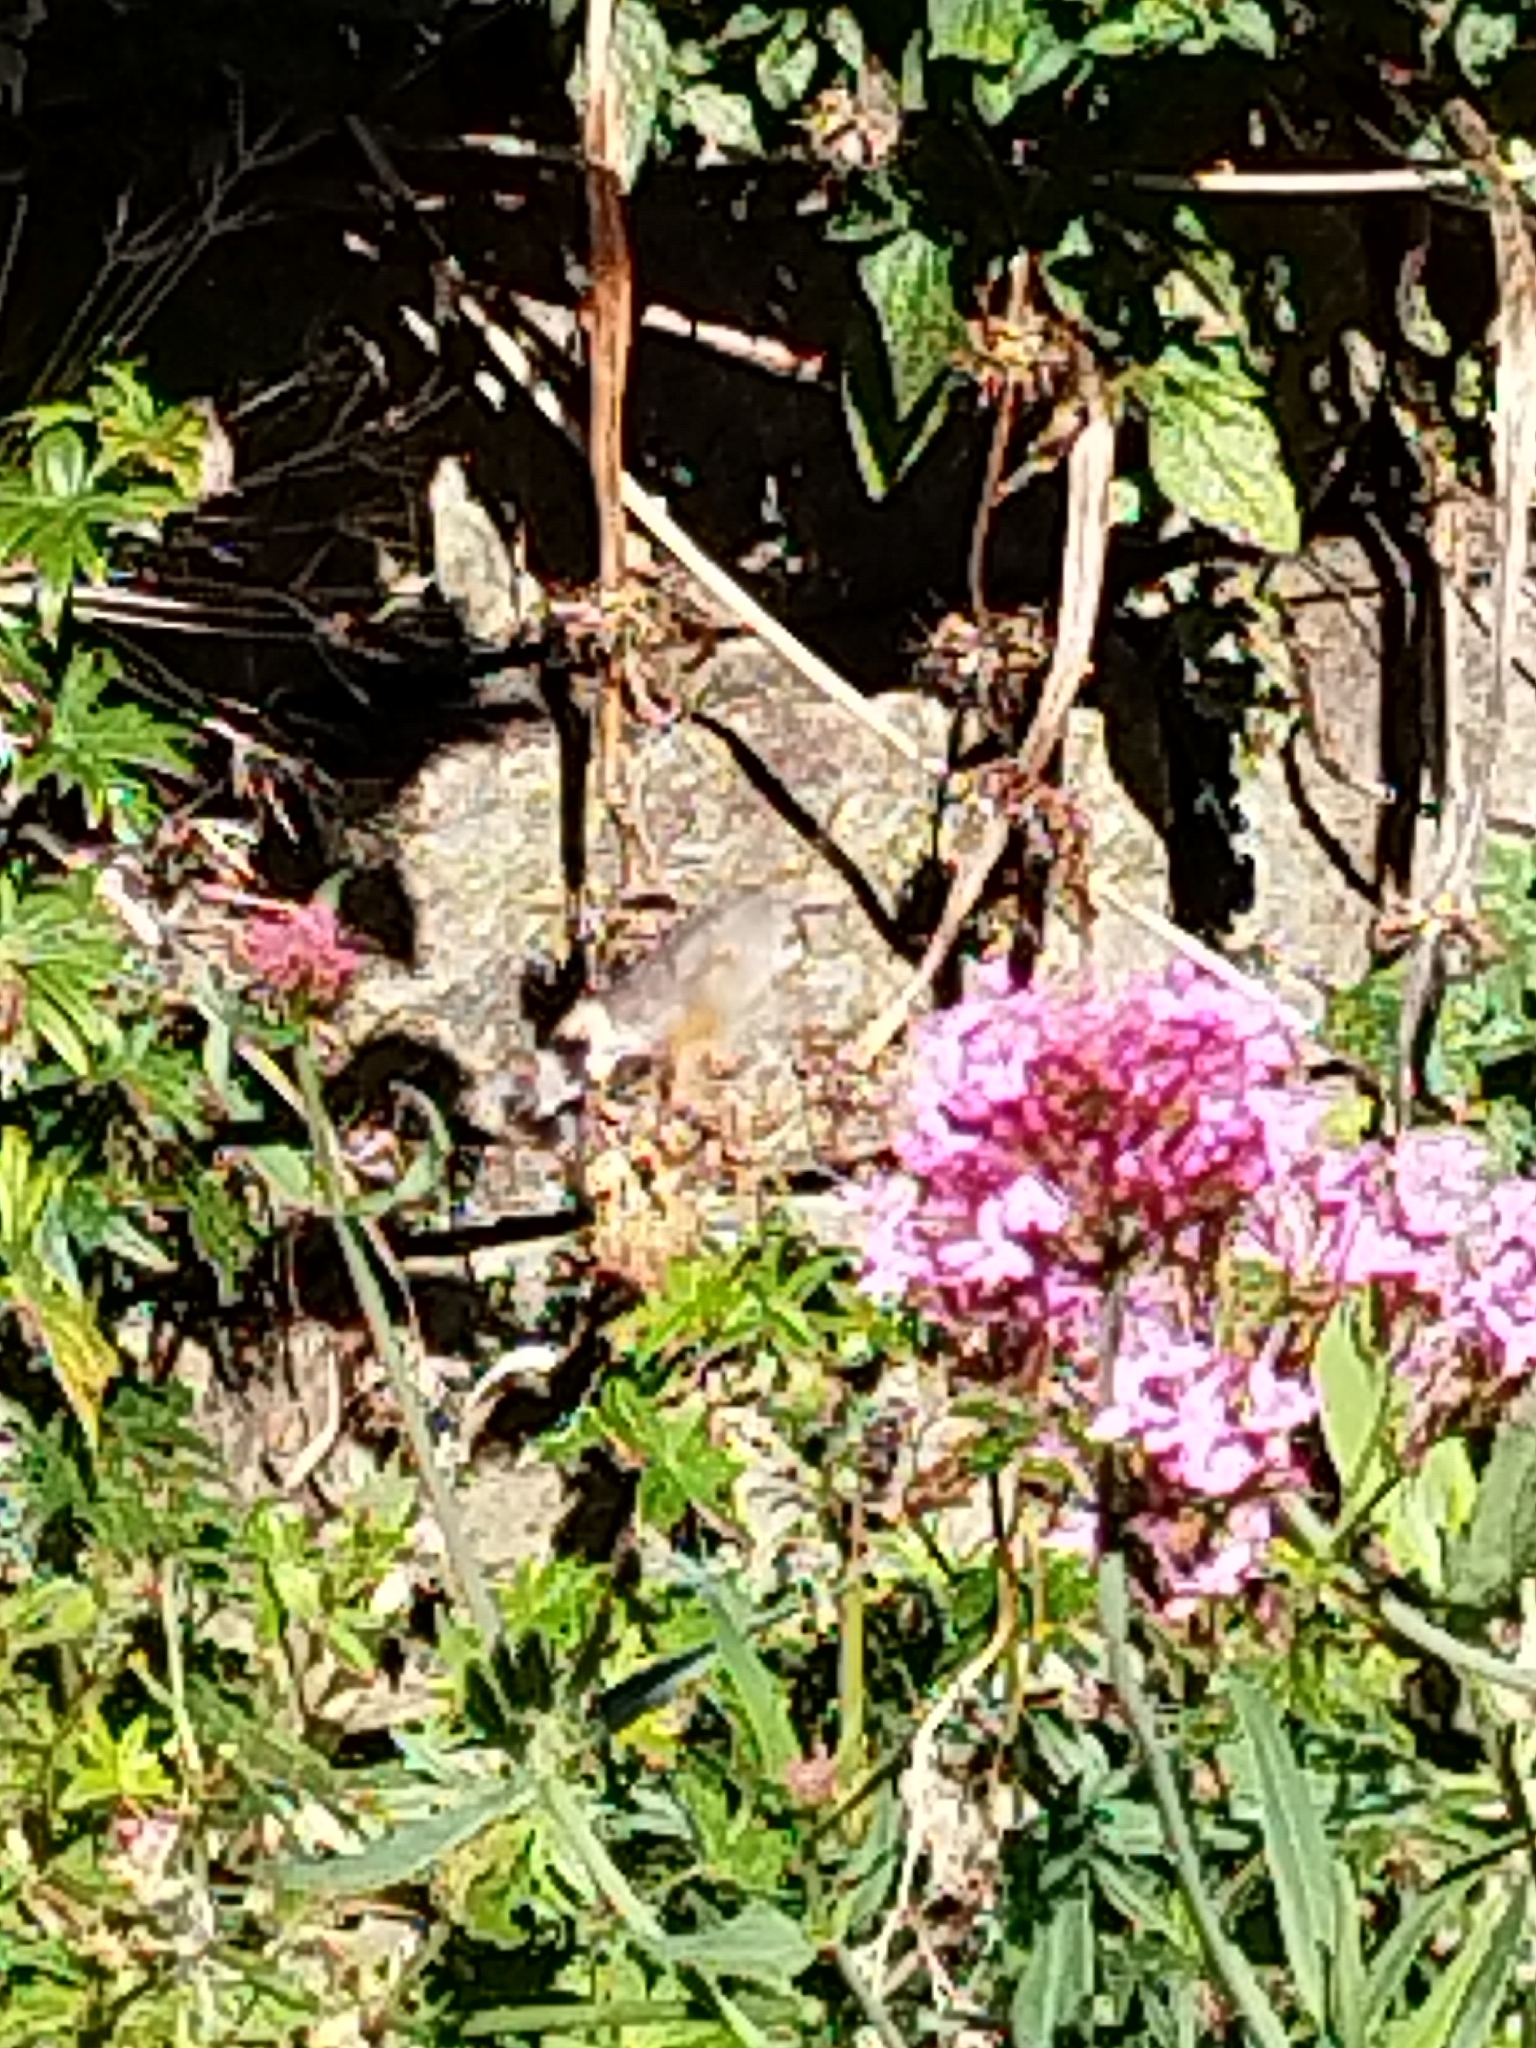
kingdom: Animalia
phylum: Arthropoda
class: Insecta
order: Lepidoptera
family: Sphingidae
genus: Macroglossum
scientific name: Macroglossum stellatarum
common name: Humming-bird hawk-moth
